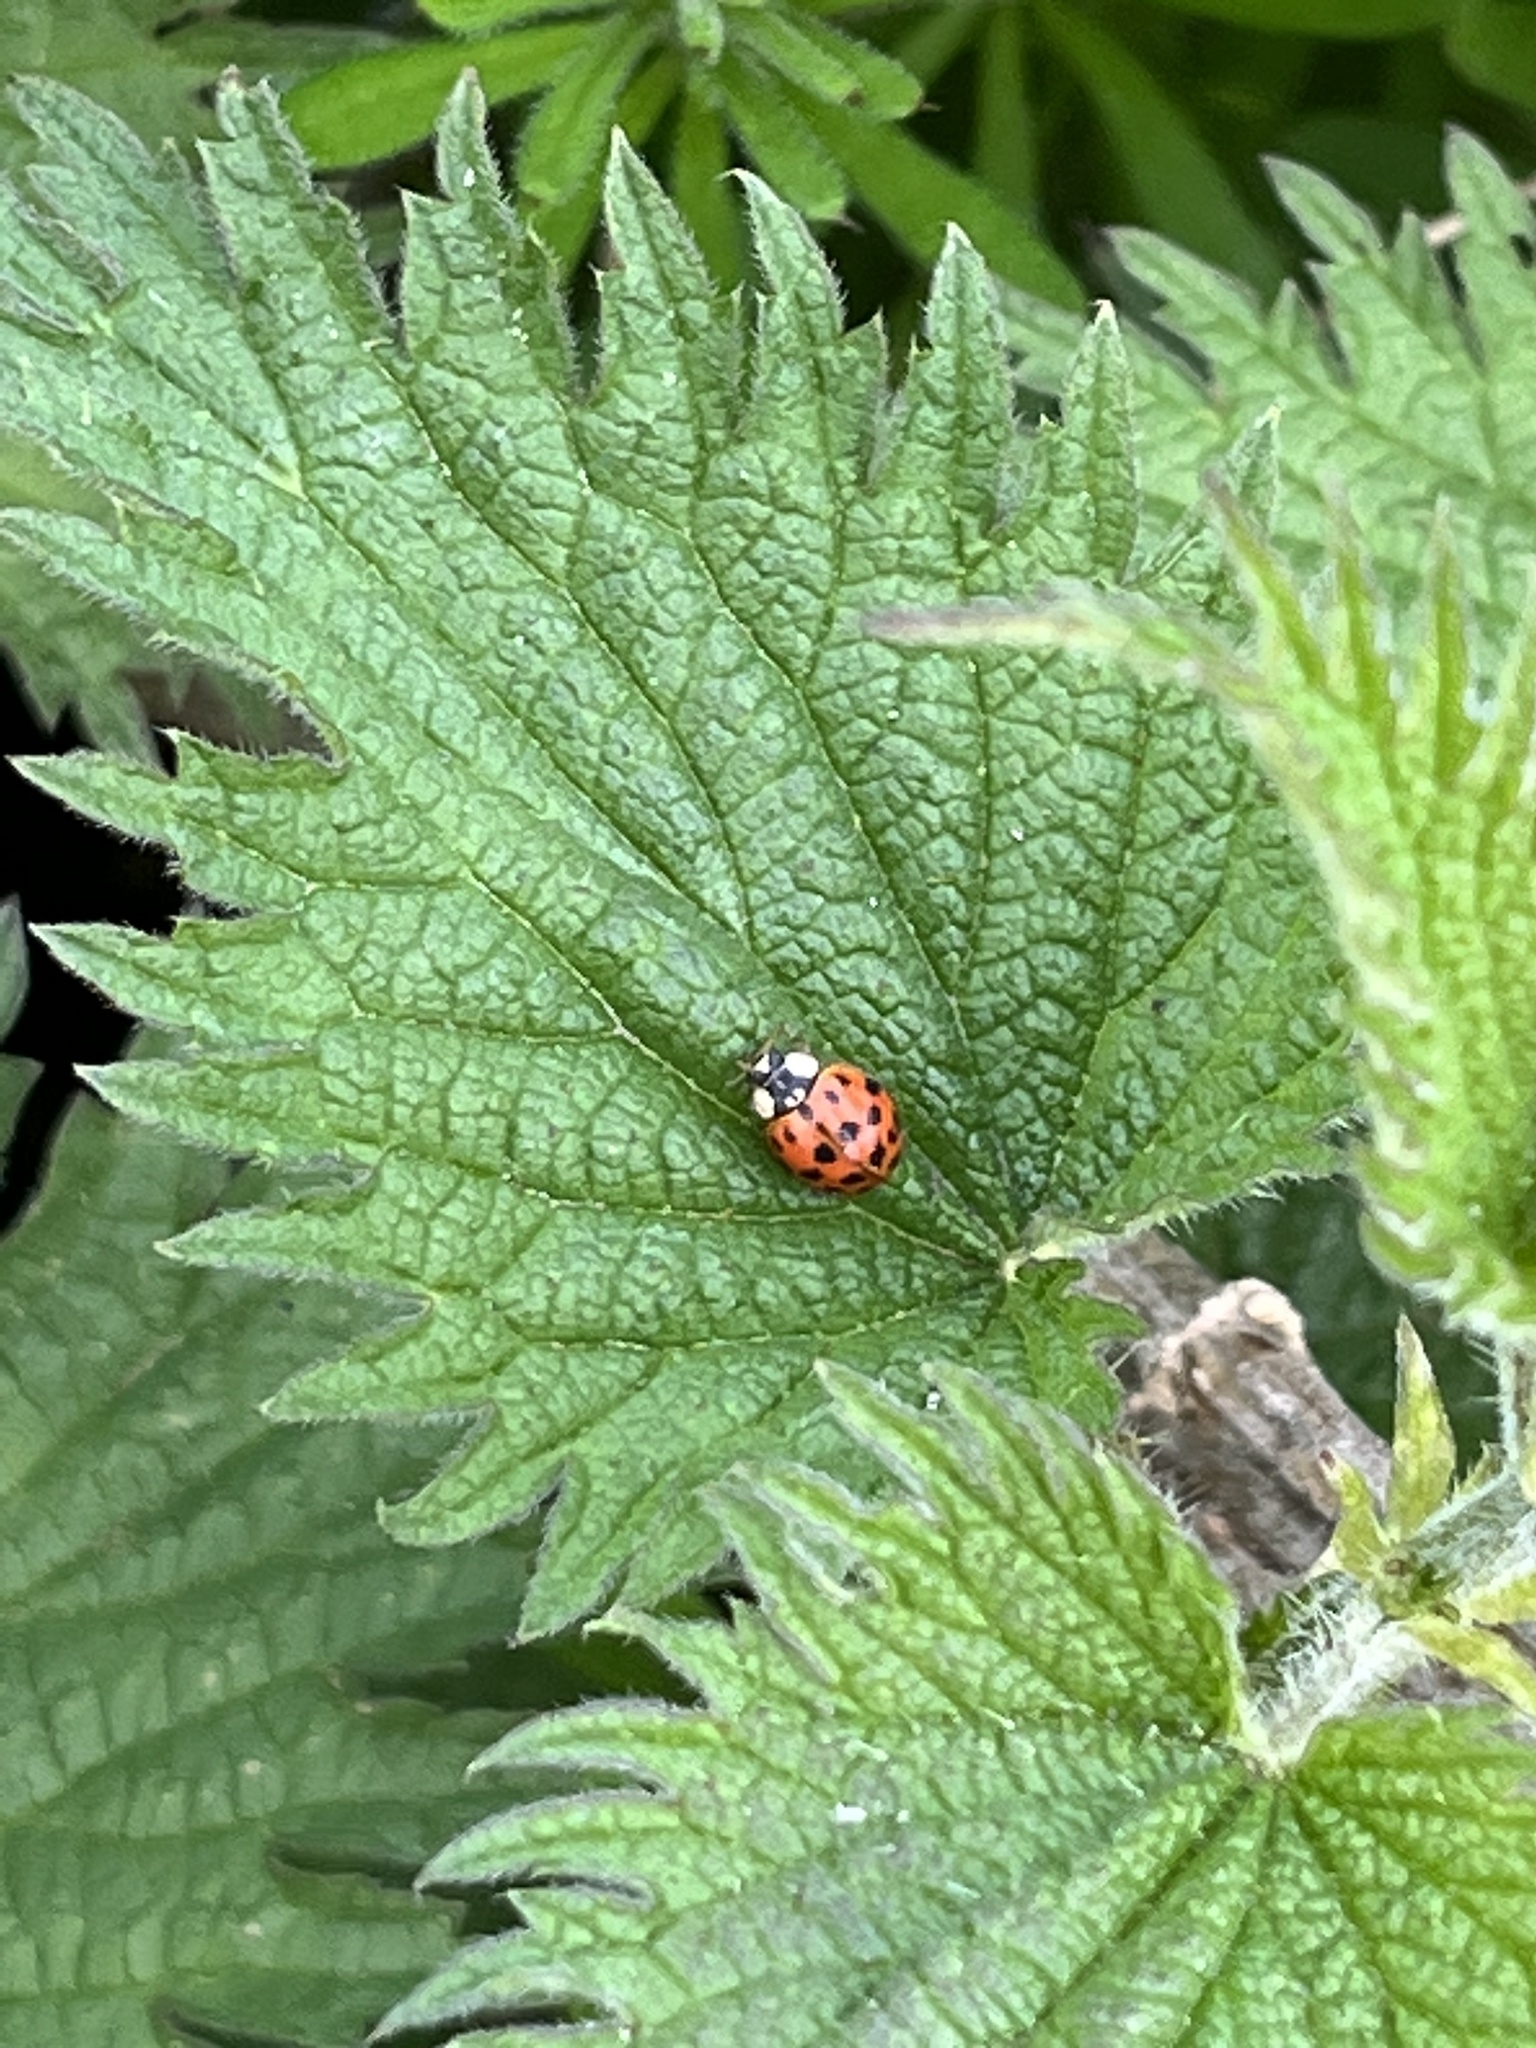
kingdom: Animalia
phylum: Arthropoda
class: Insecta
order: Coleoptera
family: Coccinellidae
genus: Harmonia
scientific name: Harmonia axyridis
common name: Harlequin ladybird
